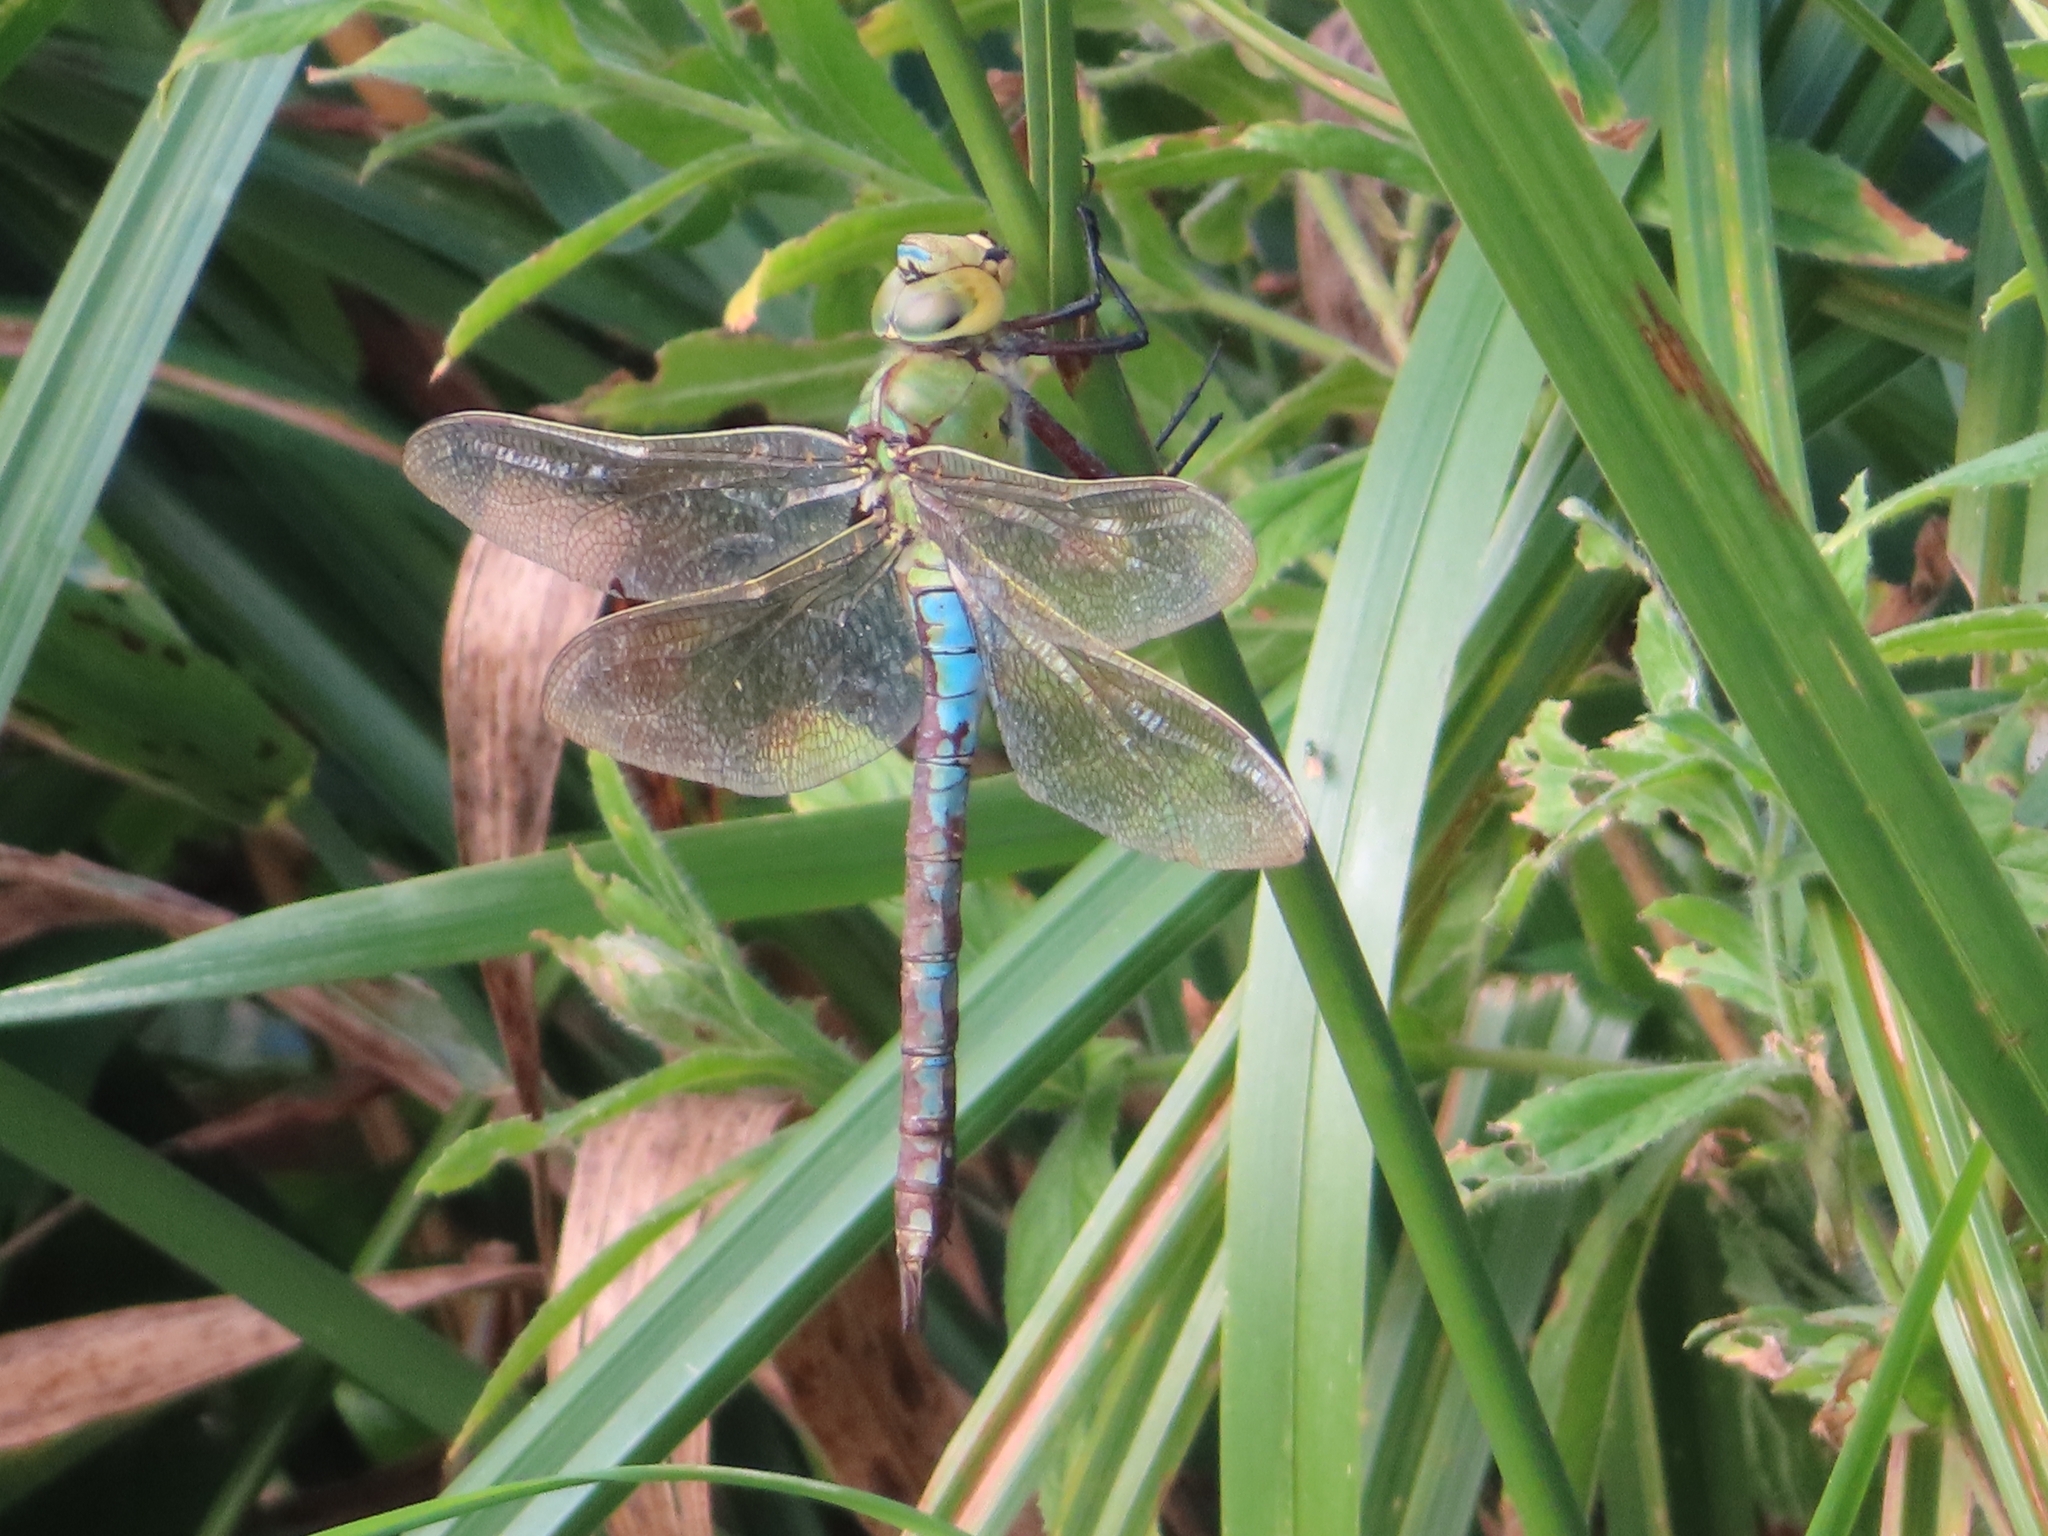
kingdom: Animalia
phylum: Arthropoda
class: Insecta
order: Odonata
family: Aeshnidae
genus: Anax
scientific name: Anax imperator
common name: Emperor dragonfly
